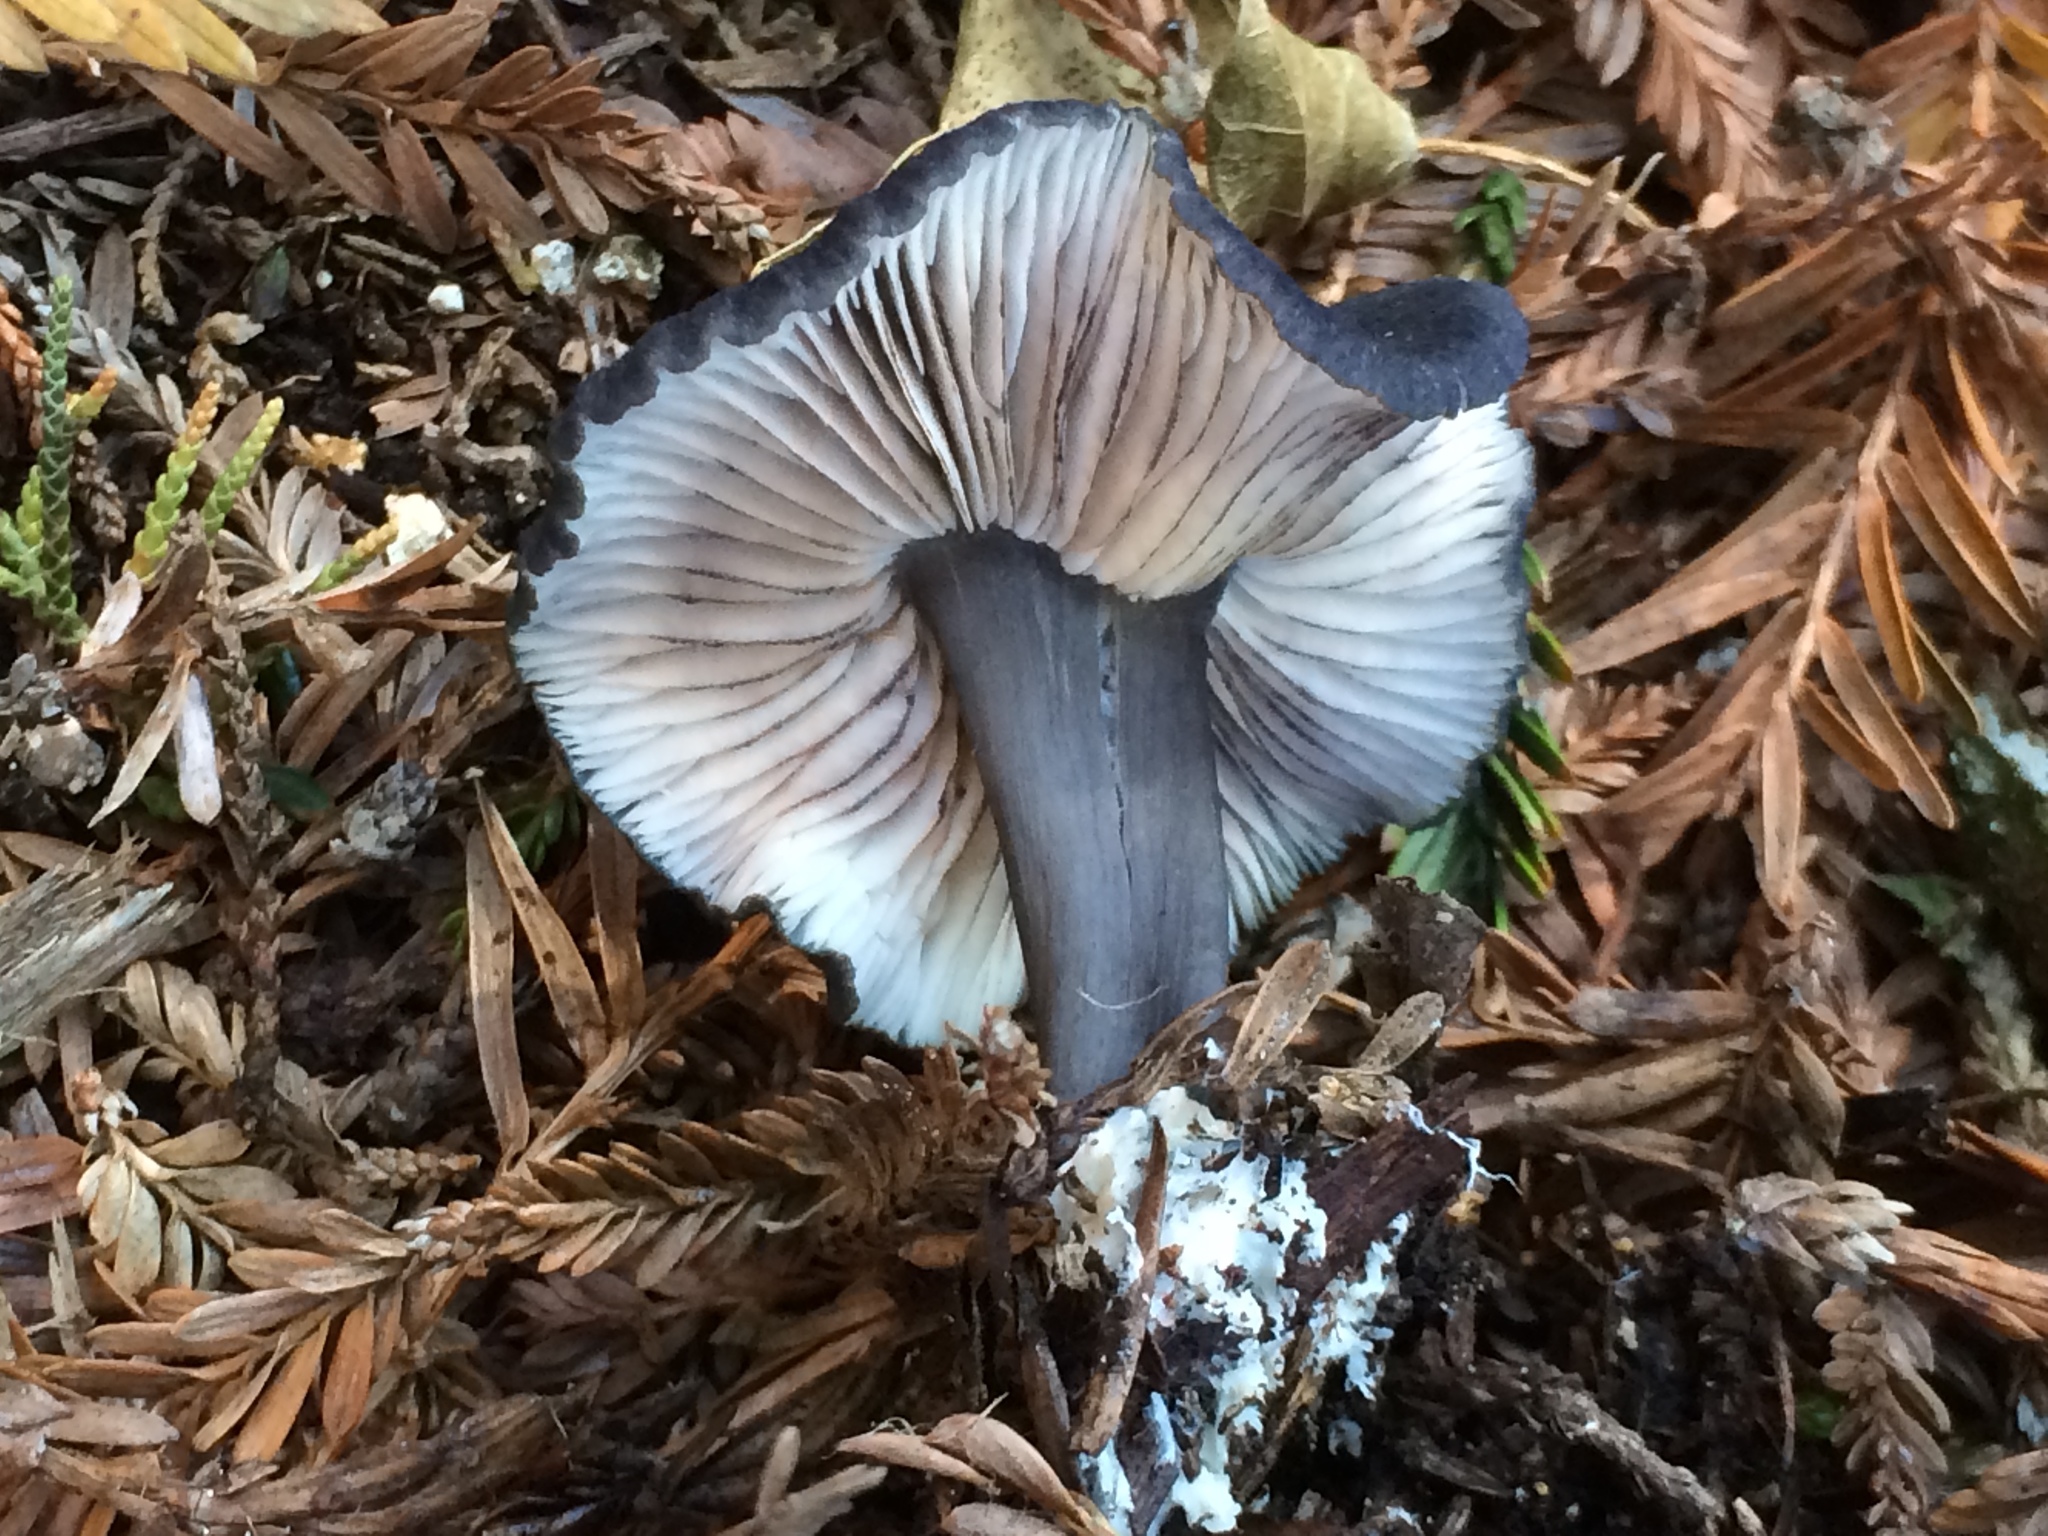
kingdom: Fungi
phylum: Basidiomycota
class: Agaricomycetes
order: Agaricales
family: Entolomataceae
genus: Entoloma
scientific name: Entoloma serrulatum
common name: Blue edge pinkgill
